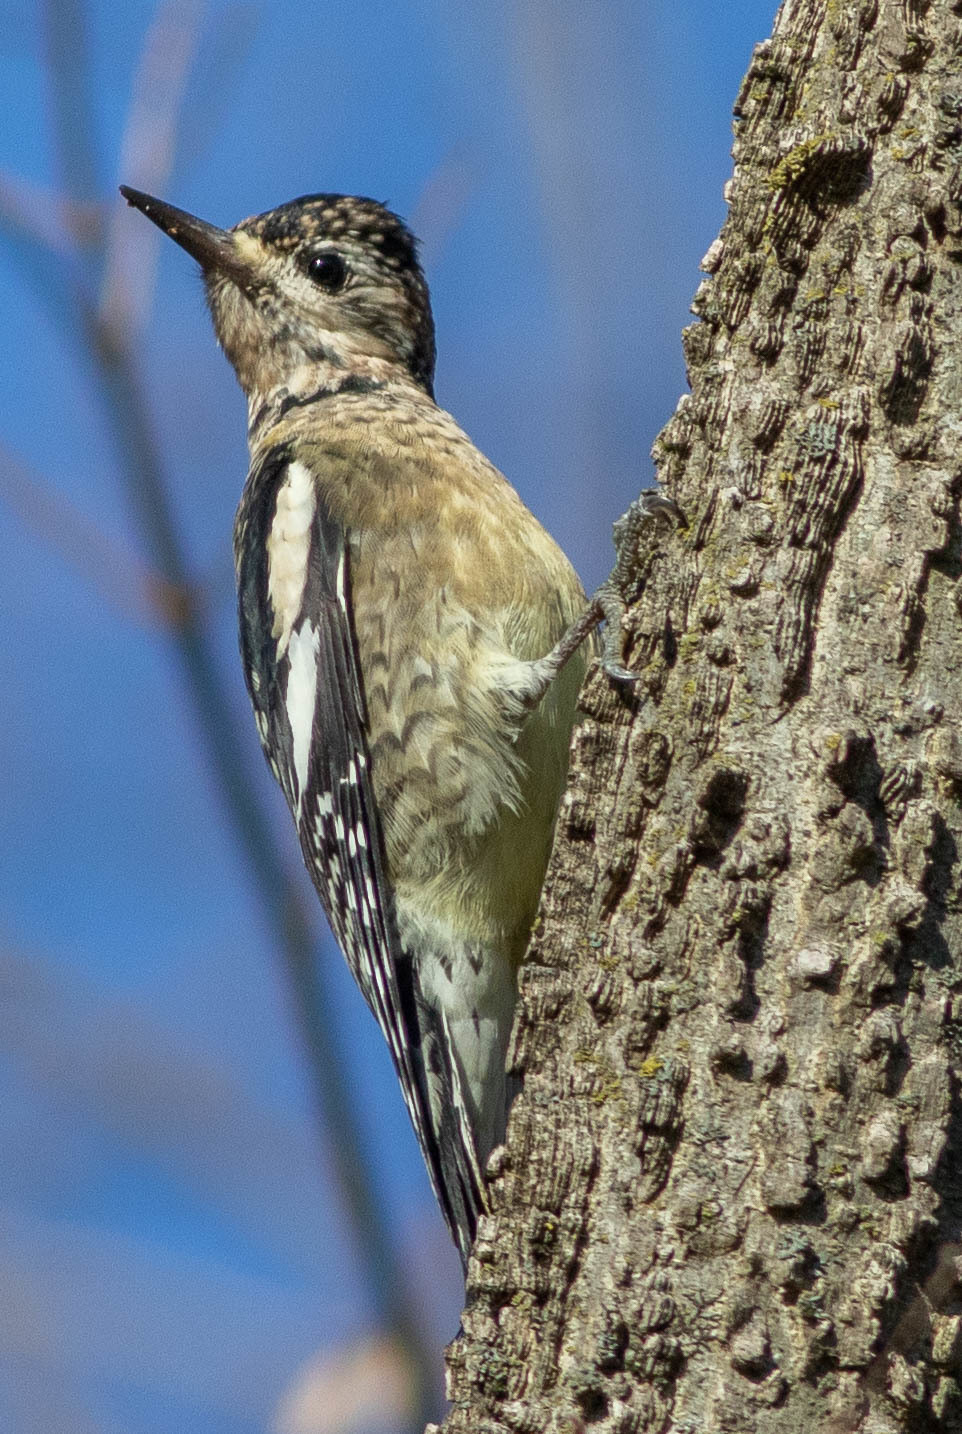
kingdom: Animalia
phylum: Chordata
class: Aves
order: Piciformes
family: Picidae
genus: Sphyrapicus
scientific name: Sphyrapicus varius
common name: Yellow-bellied sapsucker
